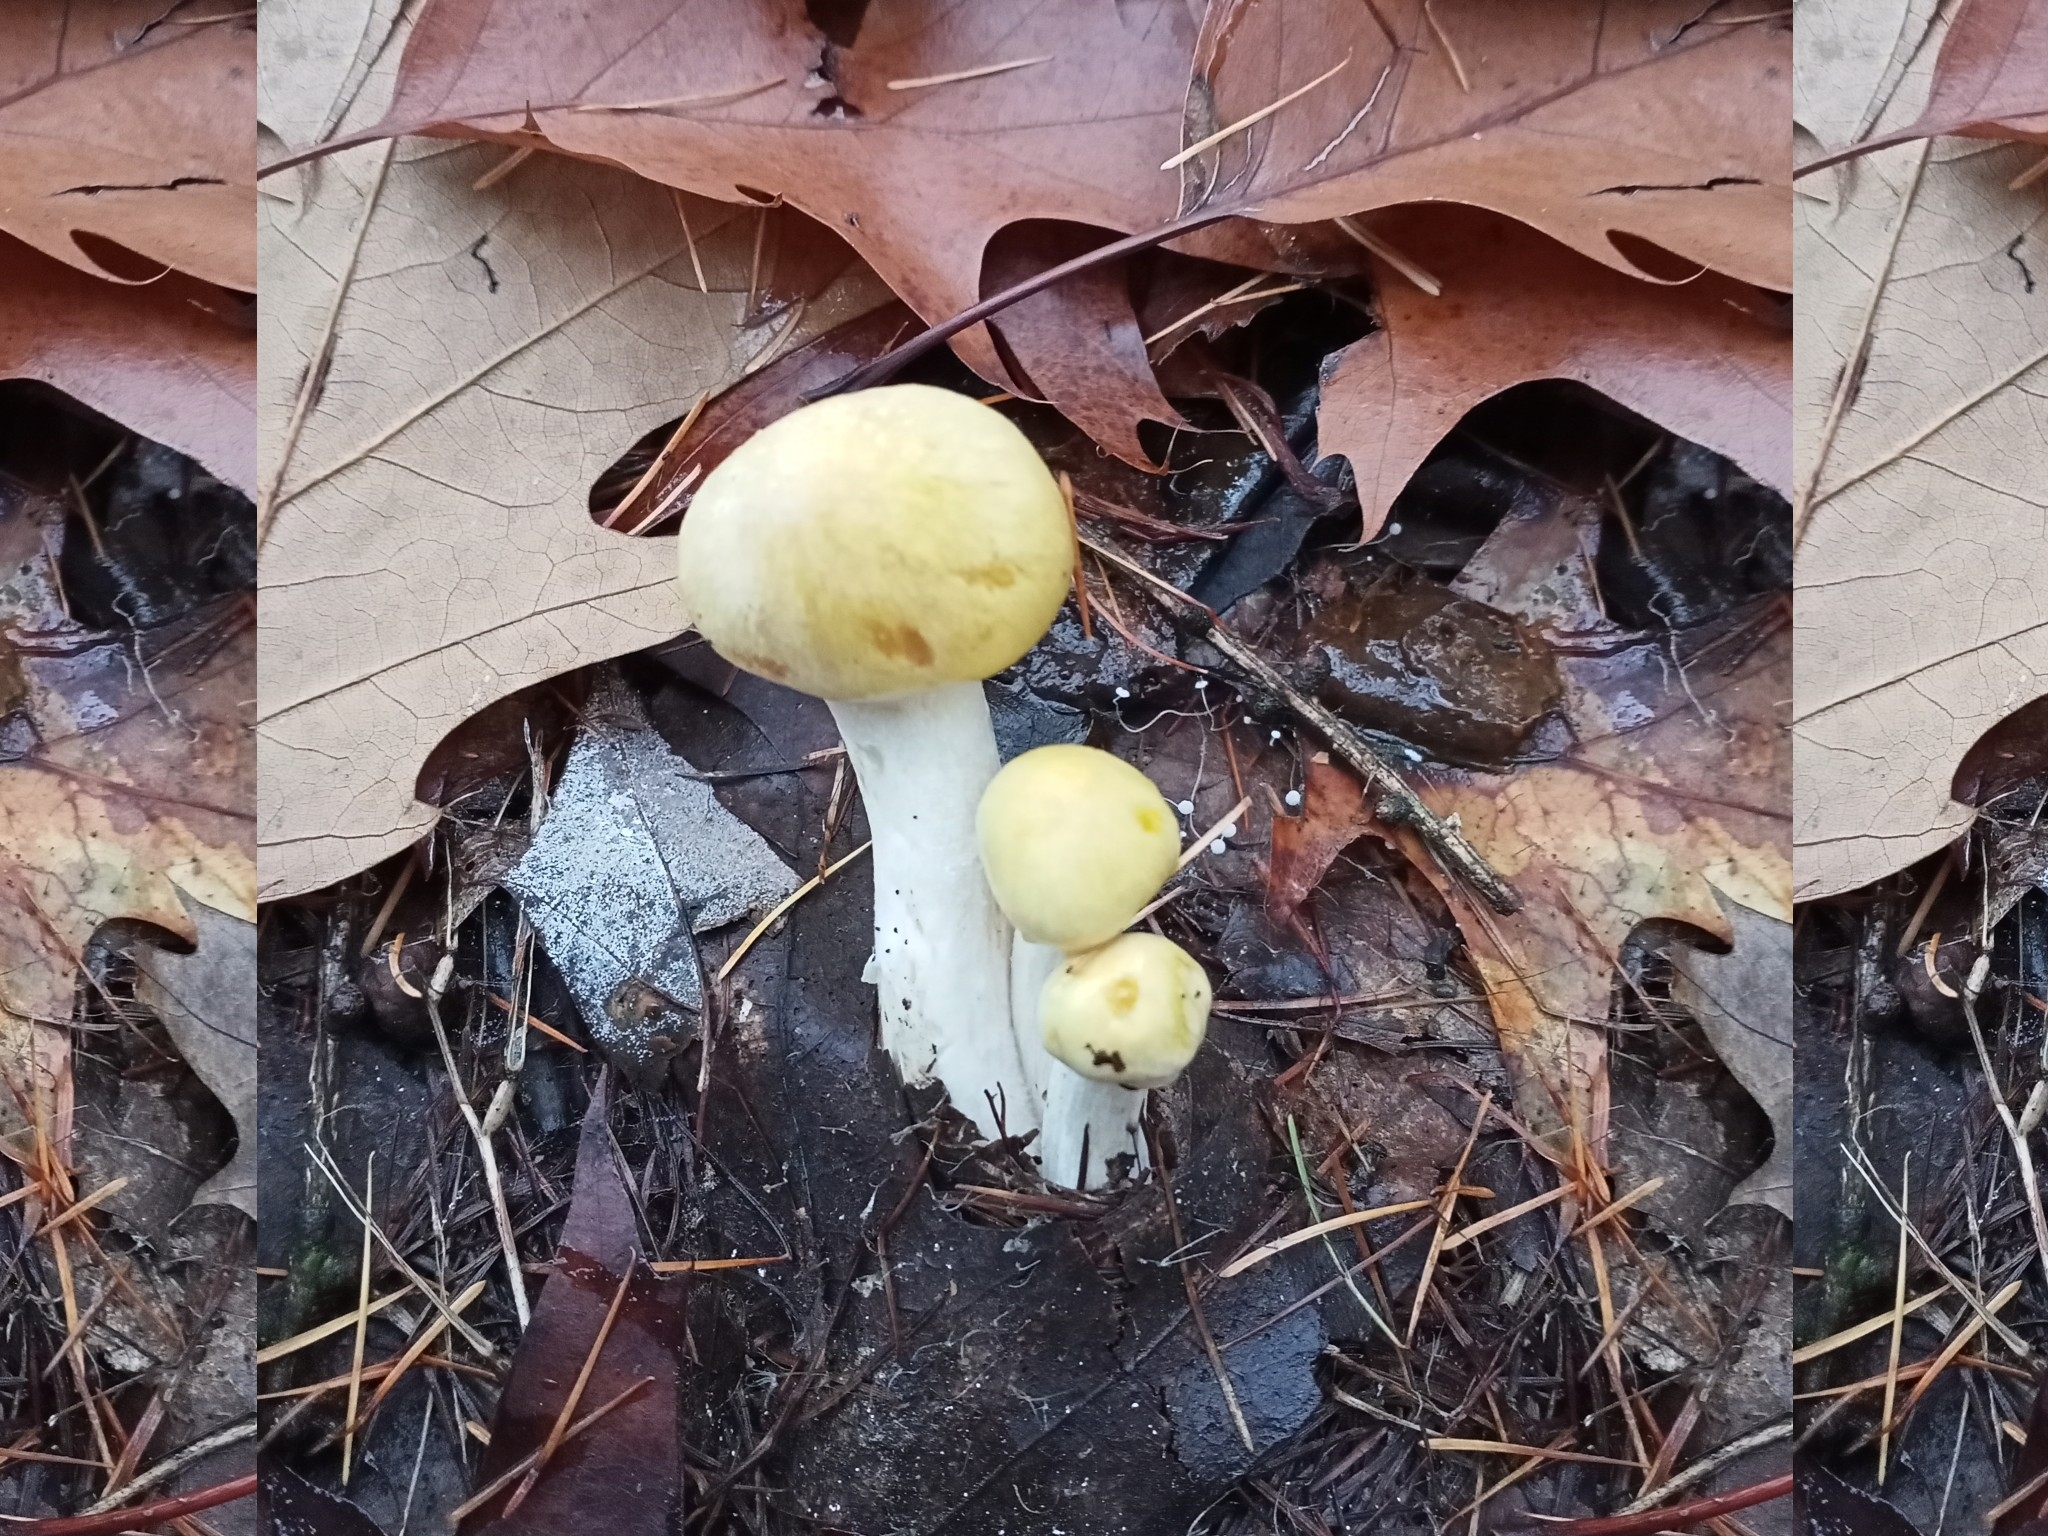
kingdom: Fungi
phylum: Basidiomycota
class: Agaricomycetes
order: Agaricales
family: Hygrophoraceae
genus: Hygrophorus
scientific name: Hygrophorus lucorum
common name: Larch woodwax
